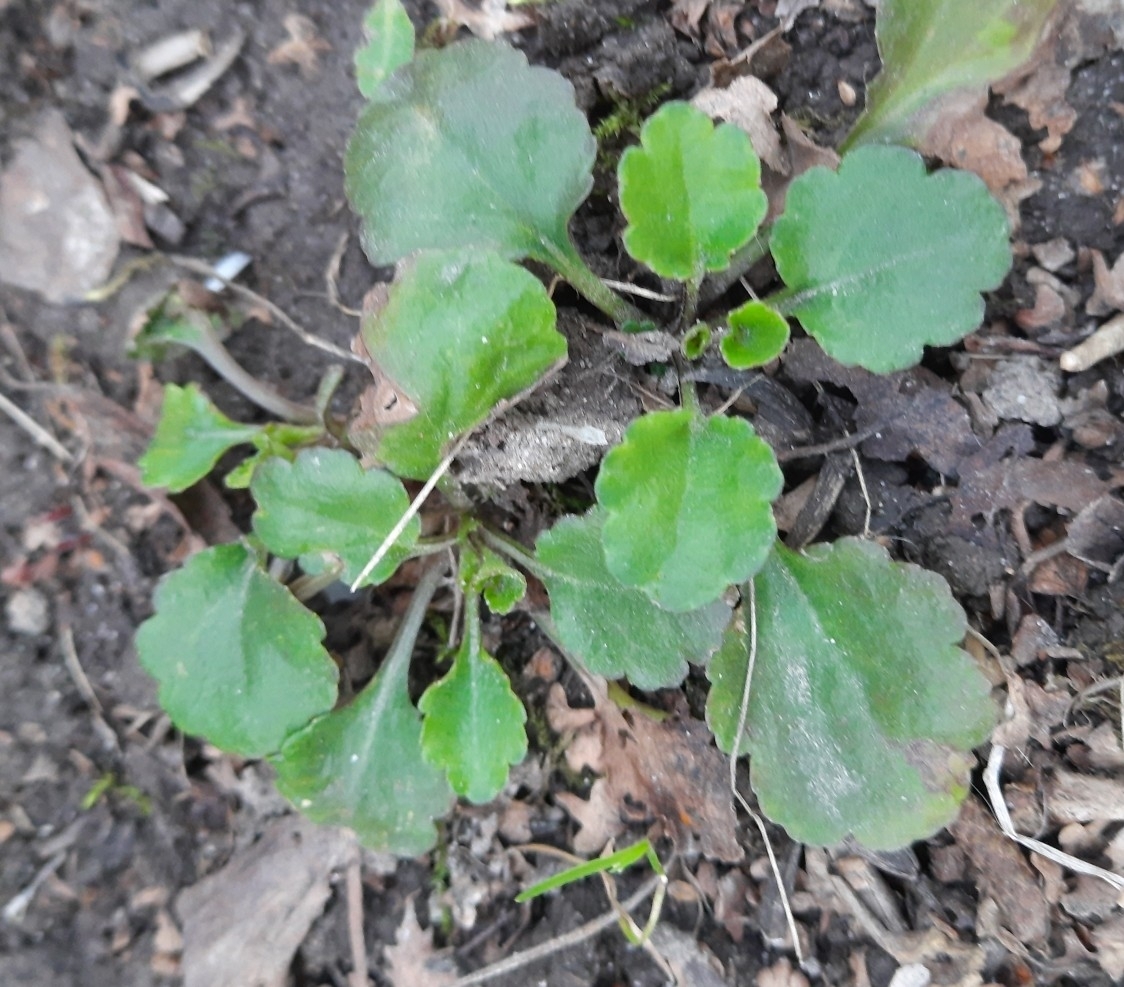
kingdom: Plantae
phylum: Tracheophyta
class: Magnoliopsida
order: Asterales
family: Asteraceae
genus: Leucanthemum
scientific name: Leucanthemum vulgare
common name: Oxeye daisy
